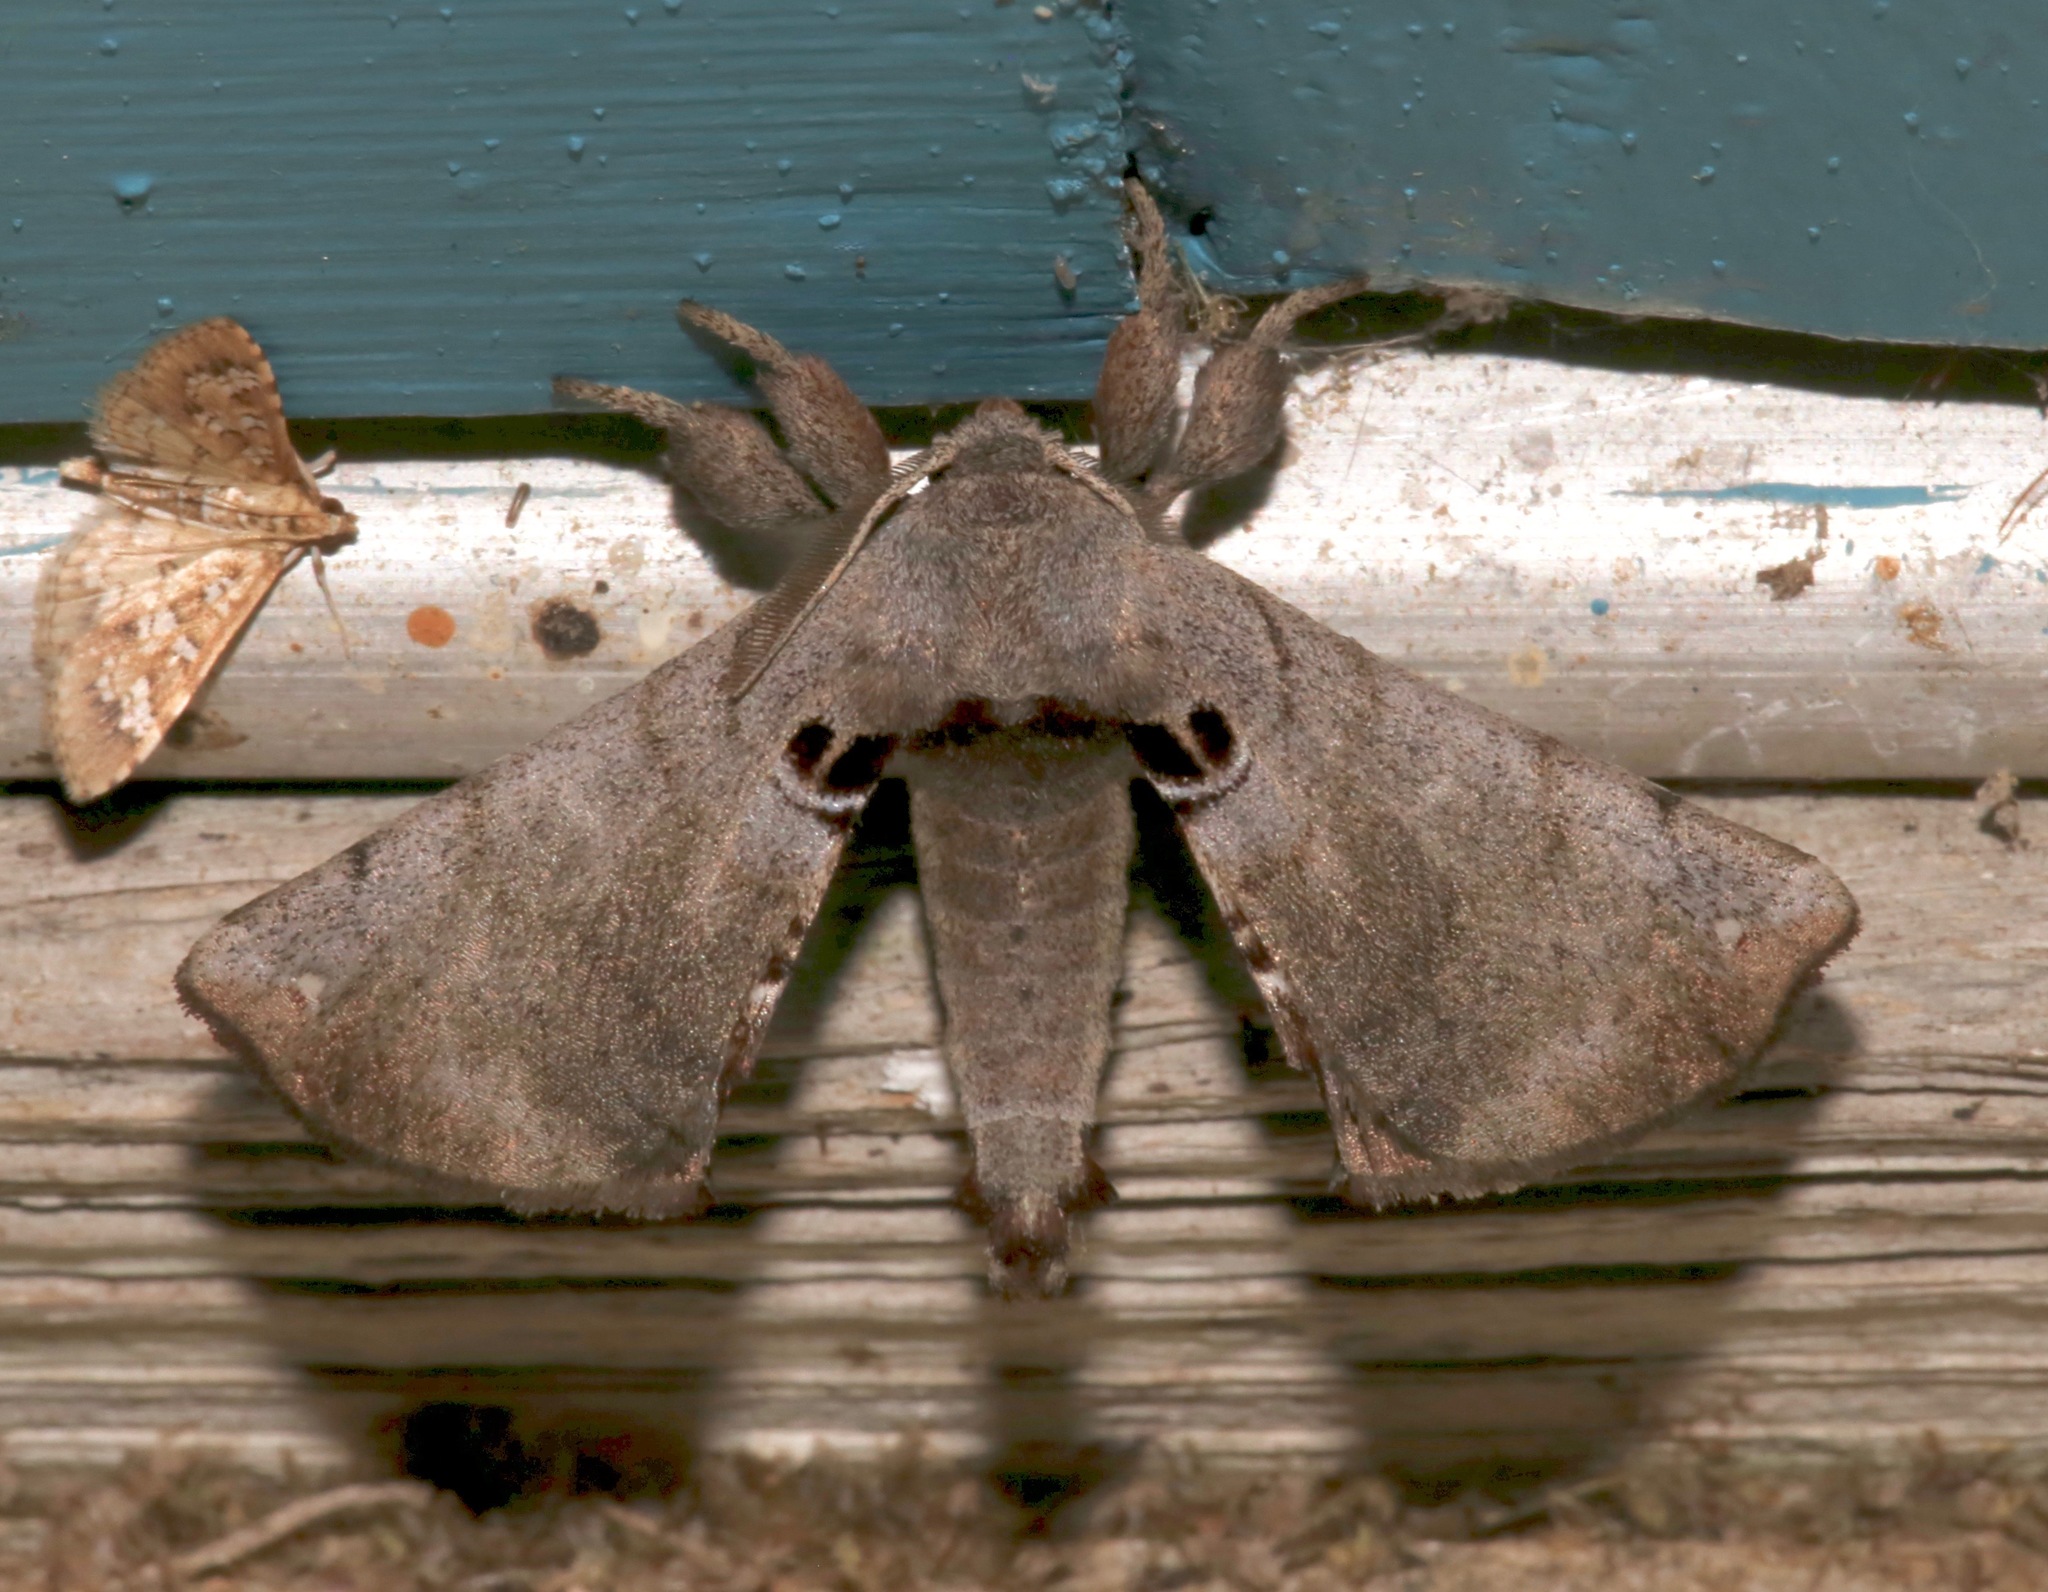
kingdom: Animalia
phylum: Arthropoda
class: Insecta
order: Lepidoptera
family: Apatelodidae
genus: Hygrochroa
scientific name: Hygrochroa Apatelodes torrefacta
